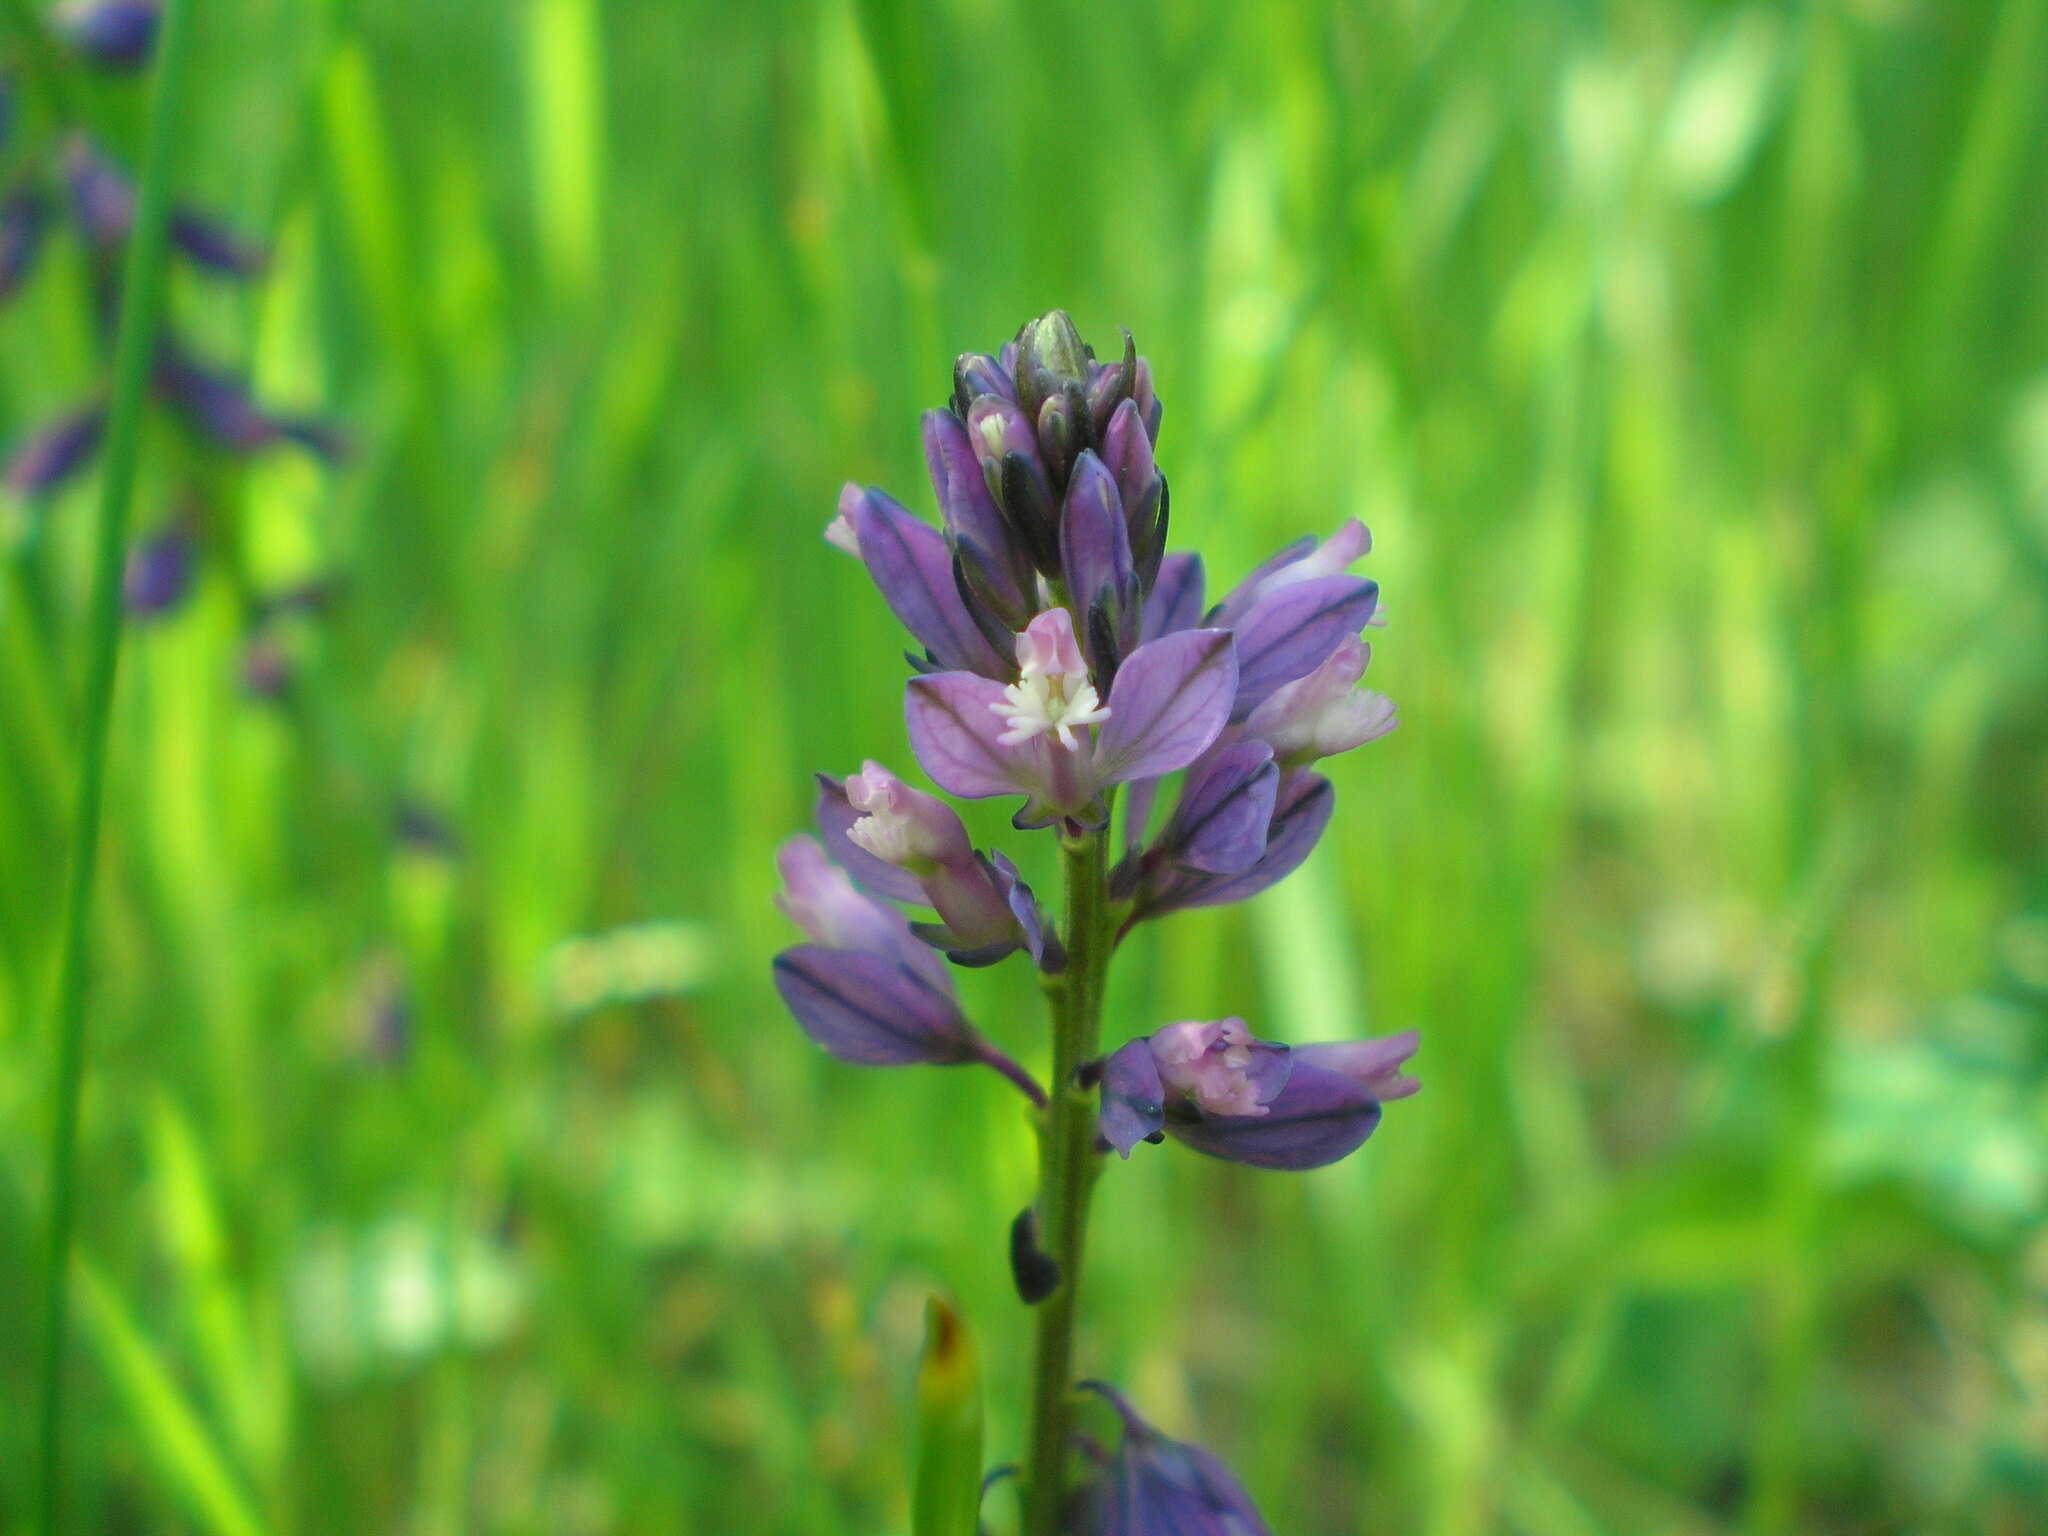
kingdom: Plantae
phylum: Tracheophyta
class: Magnoliopsida
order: Fabales
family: Polygalaceae
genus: Polygala
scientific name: Polygala comosa
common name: Tufted milkwort
